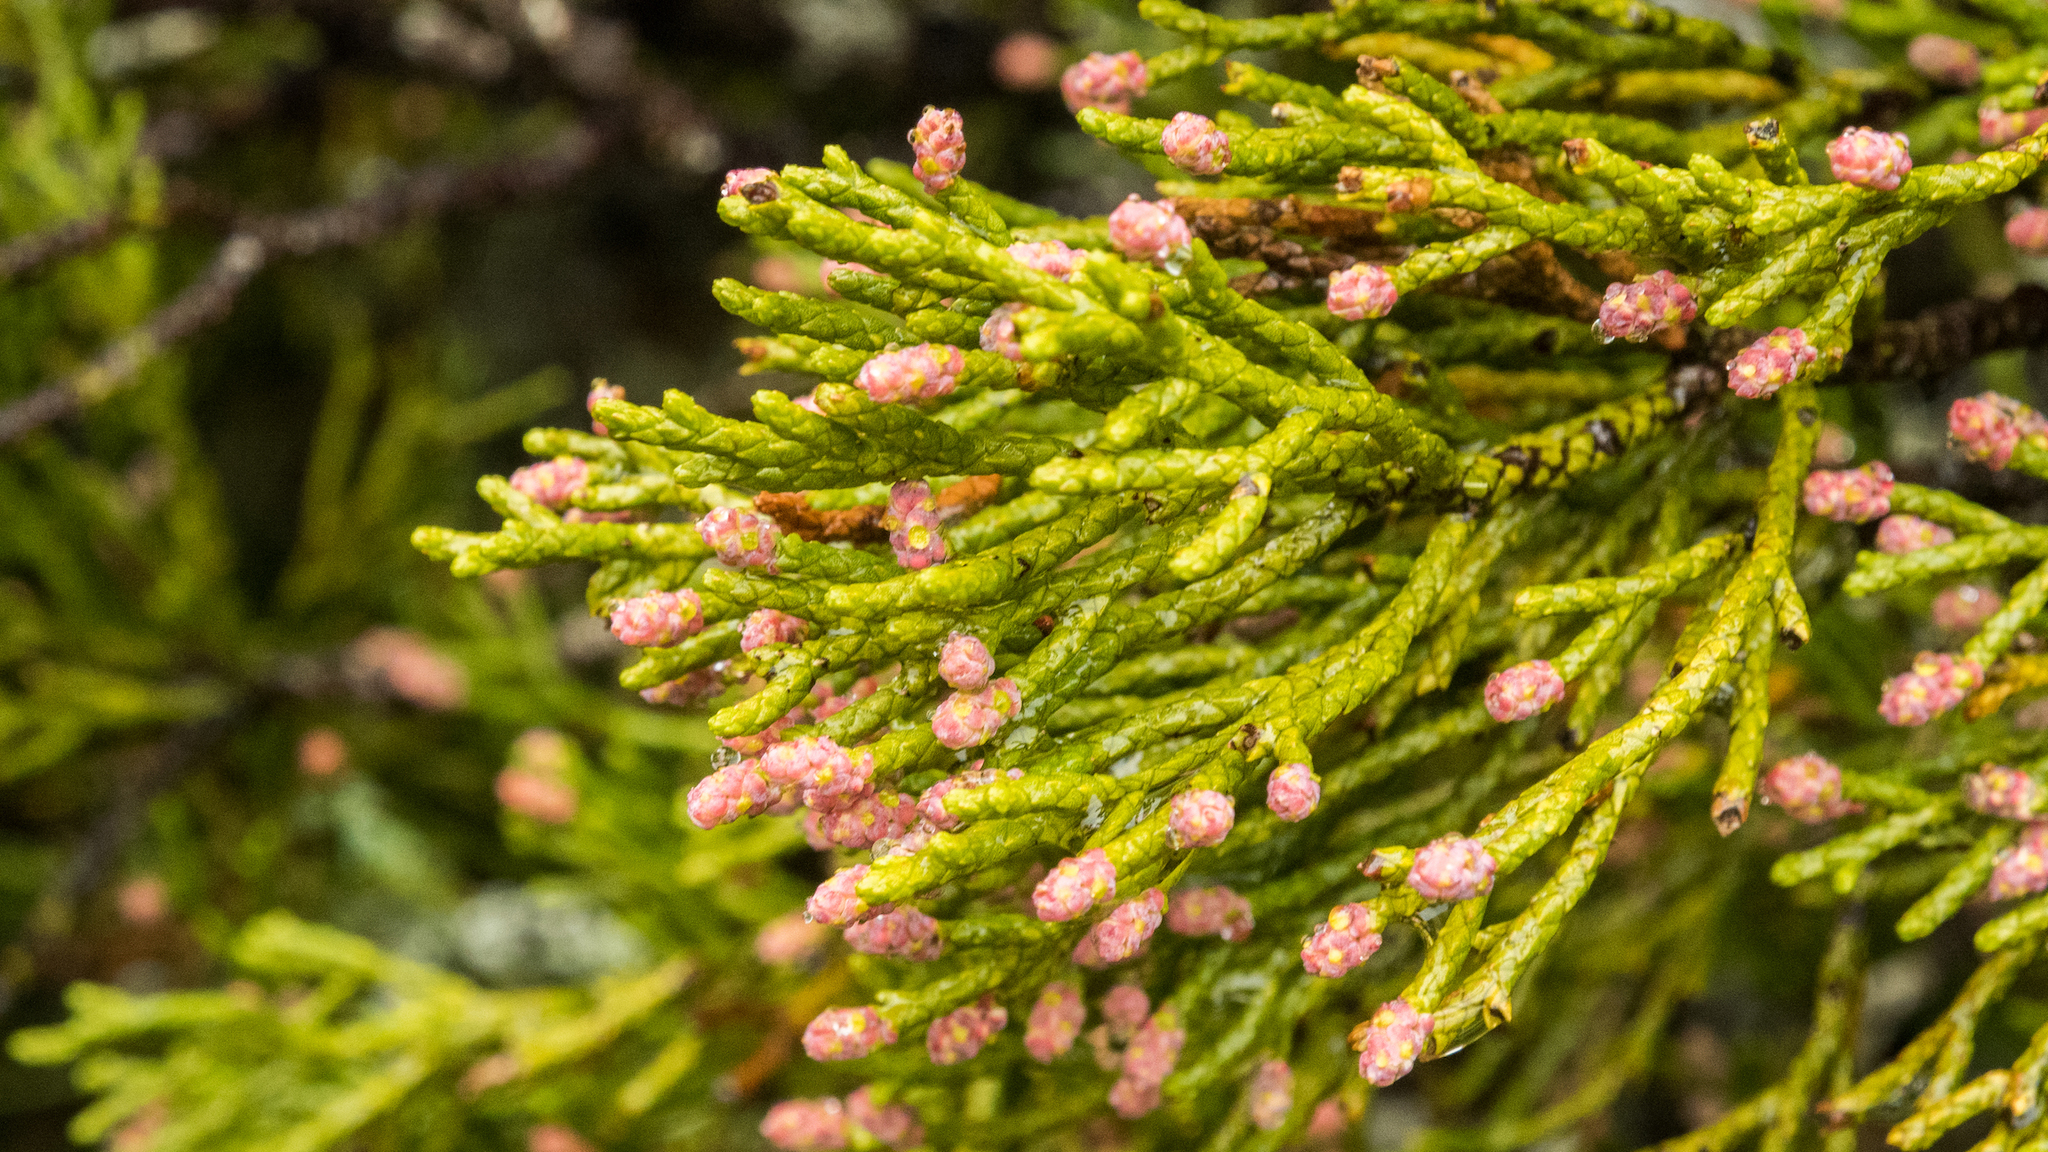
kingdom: Plantae
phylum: Tracheophyta
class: Pinopsida
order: Pinales
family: Podocarpaceae
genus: Halocarpus
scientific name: Halocarpus bidwillii
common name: Bog pine
